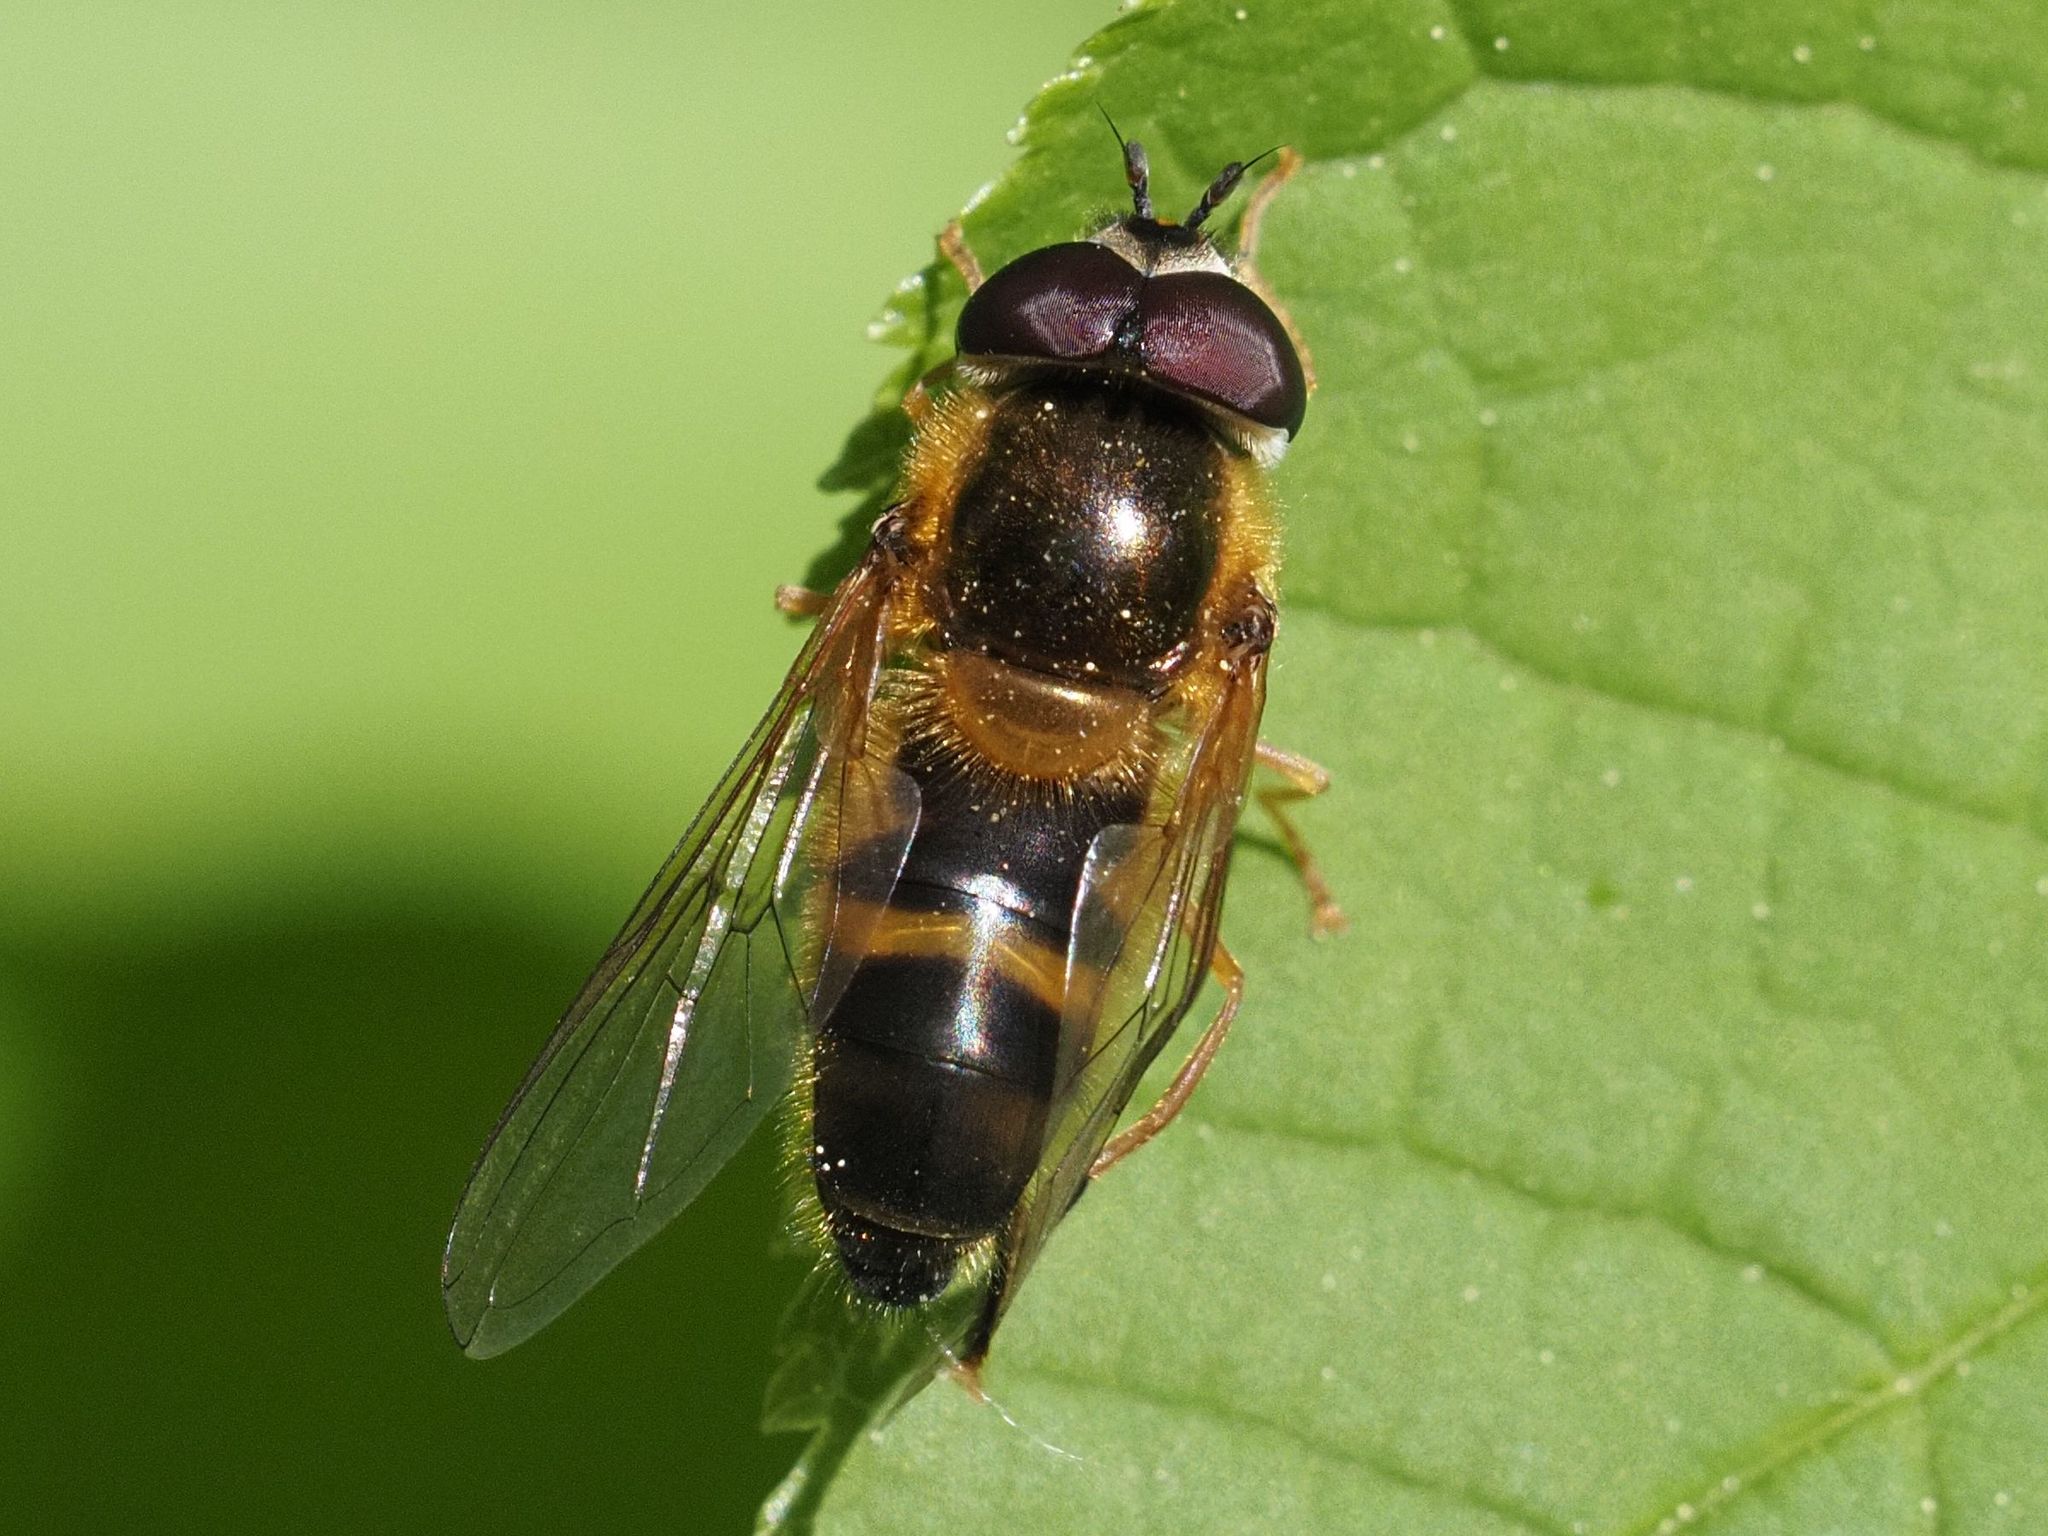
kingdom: Animalia
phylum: Arthropoda
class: Insecta
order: Diptera
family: Syrphidae
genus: Epistrophe
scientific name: Epistrophe eligans
